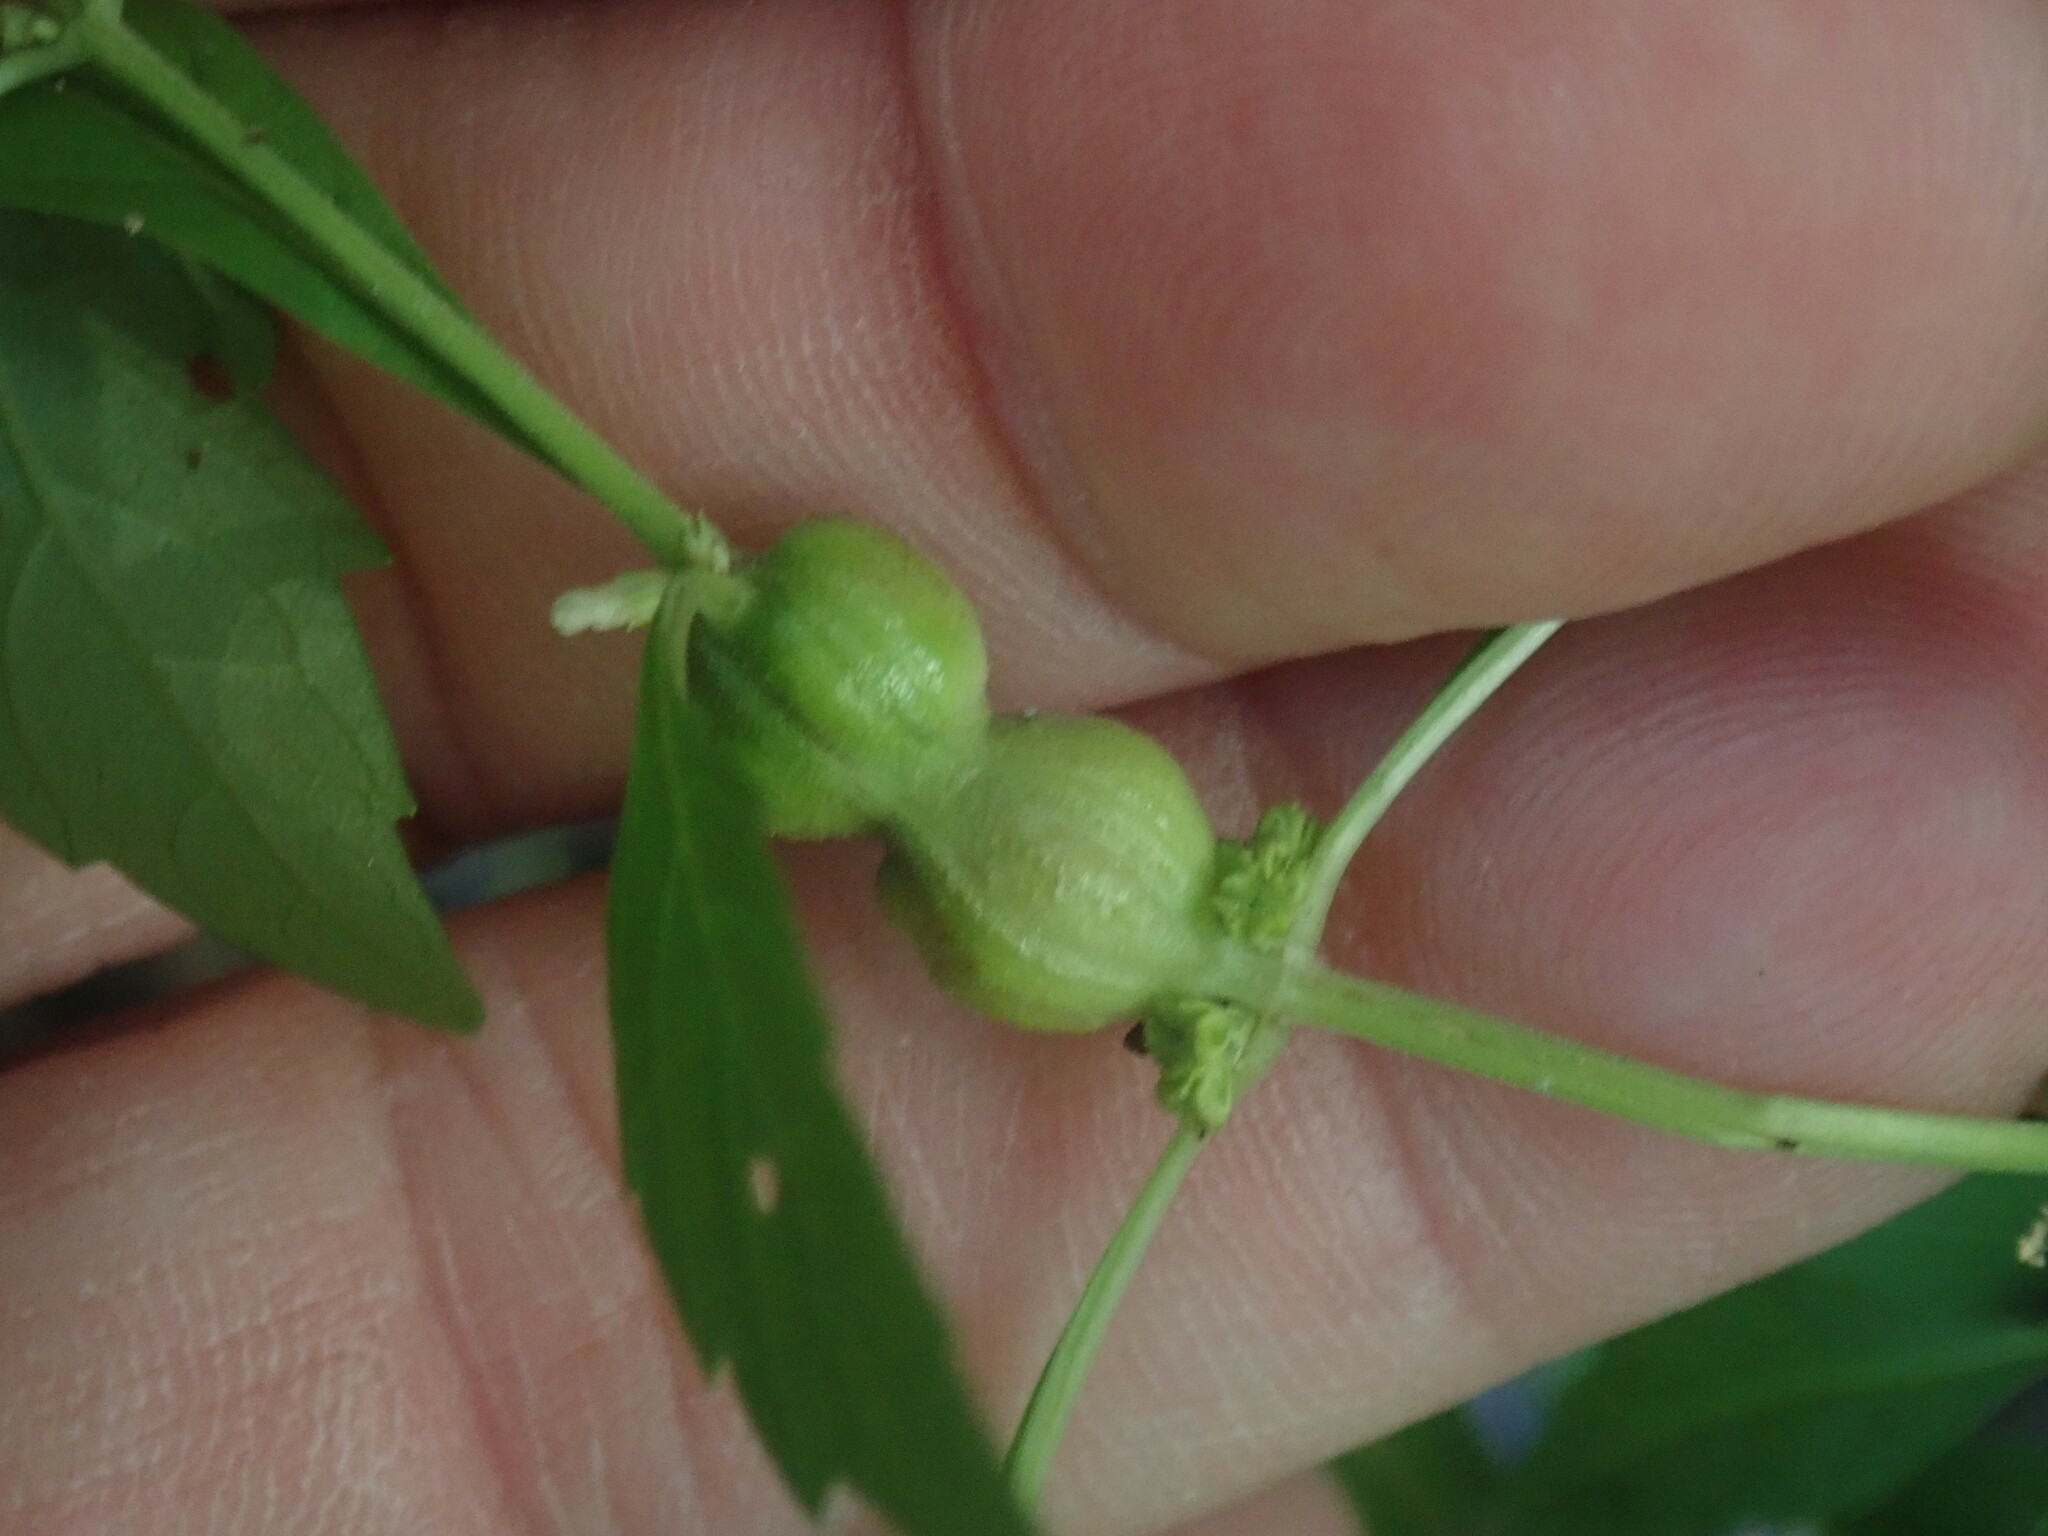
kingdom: Animalia
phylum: Arthropoda
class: Insecta
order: Diptera
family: Cecidomyiidae
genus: Neolasioptera
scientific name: Neolasioptera lycopi
